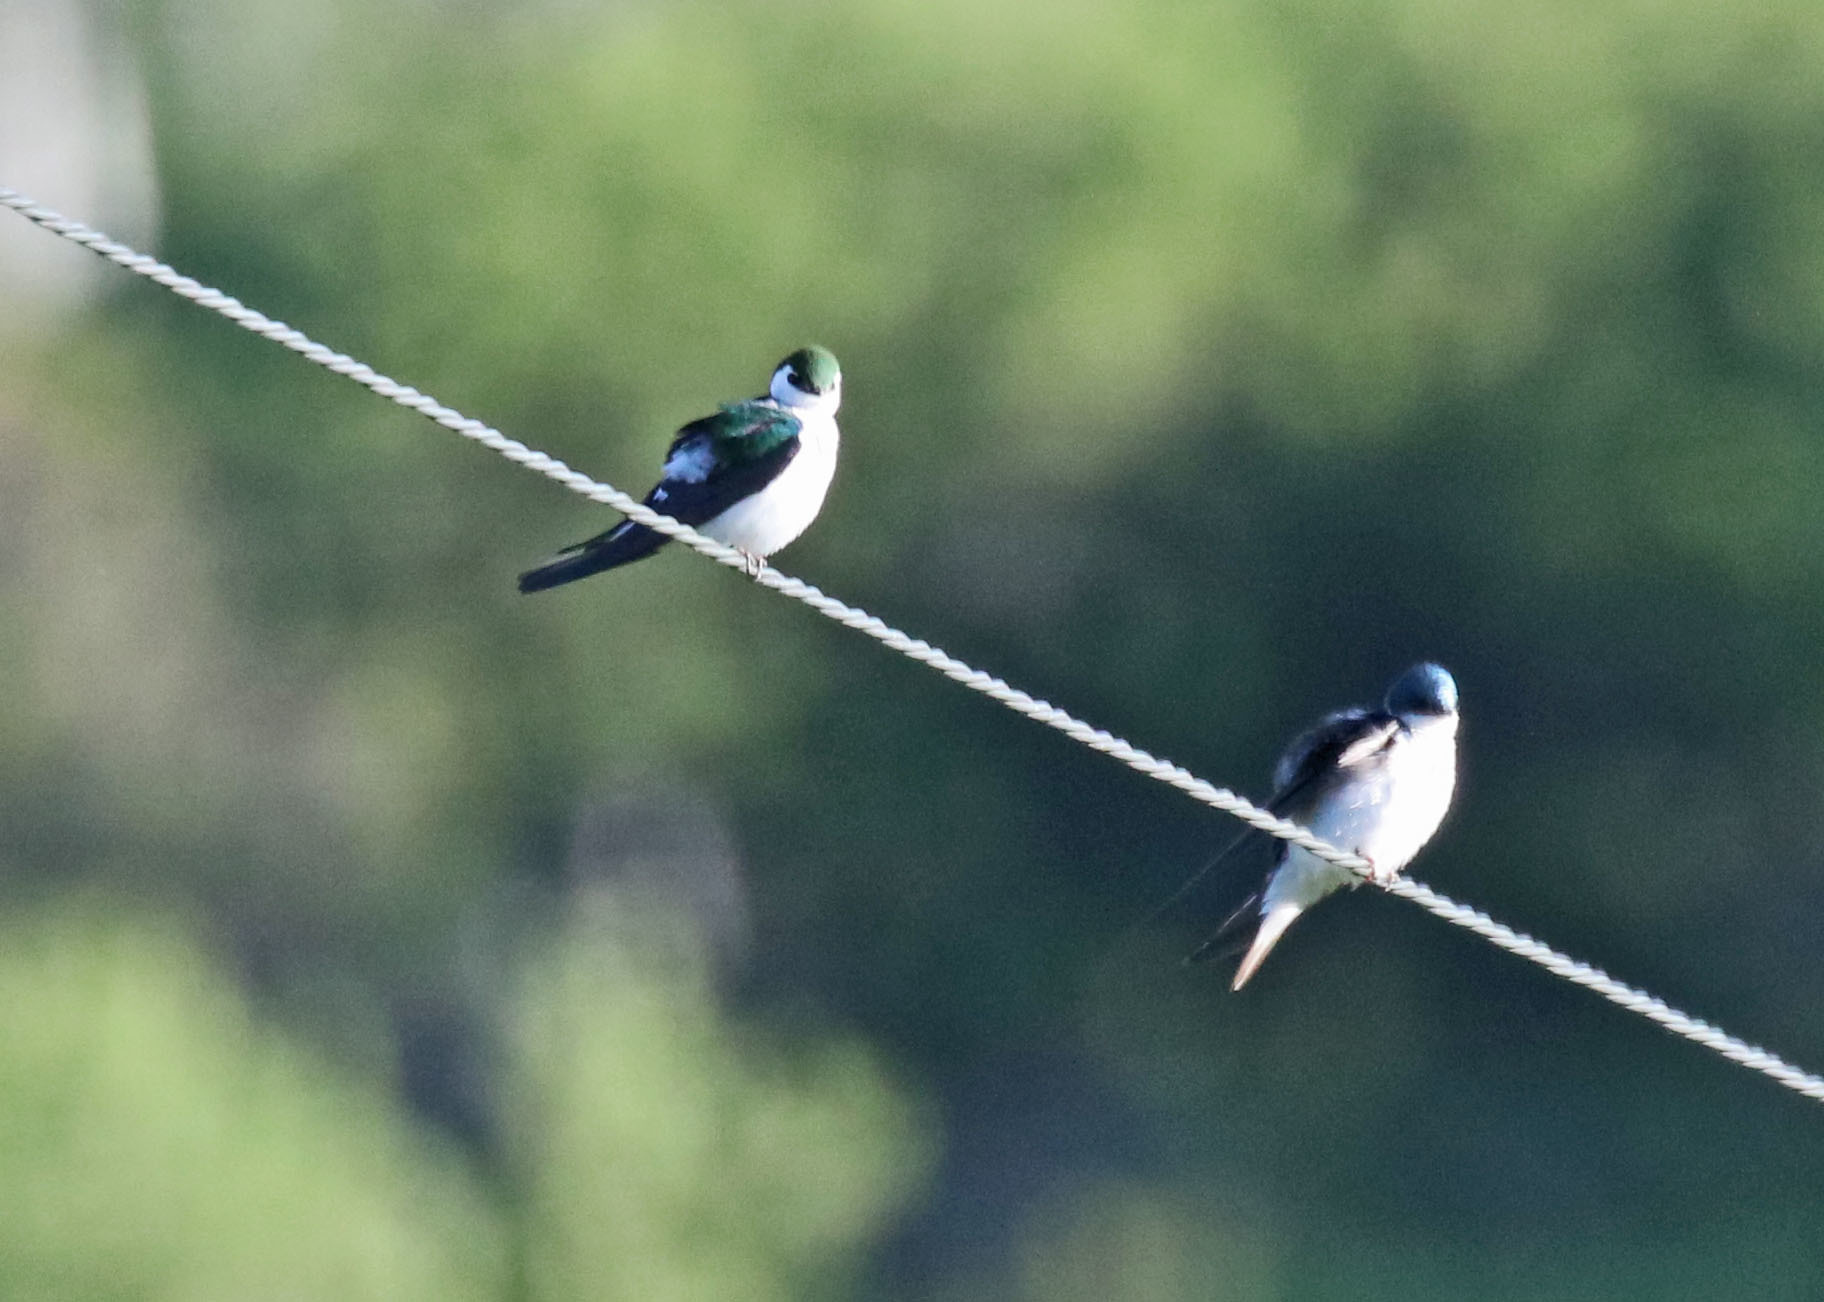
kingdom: Animalia
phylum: Chordata
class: Aves
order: Passeriformes
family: Hirundinidae
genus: Tachycineta
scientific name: Tachycineta thalassina
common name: Violet-green swallow
